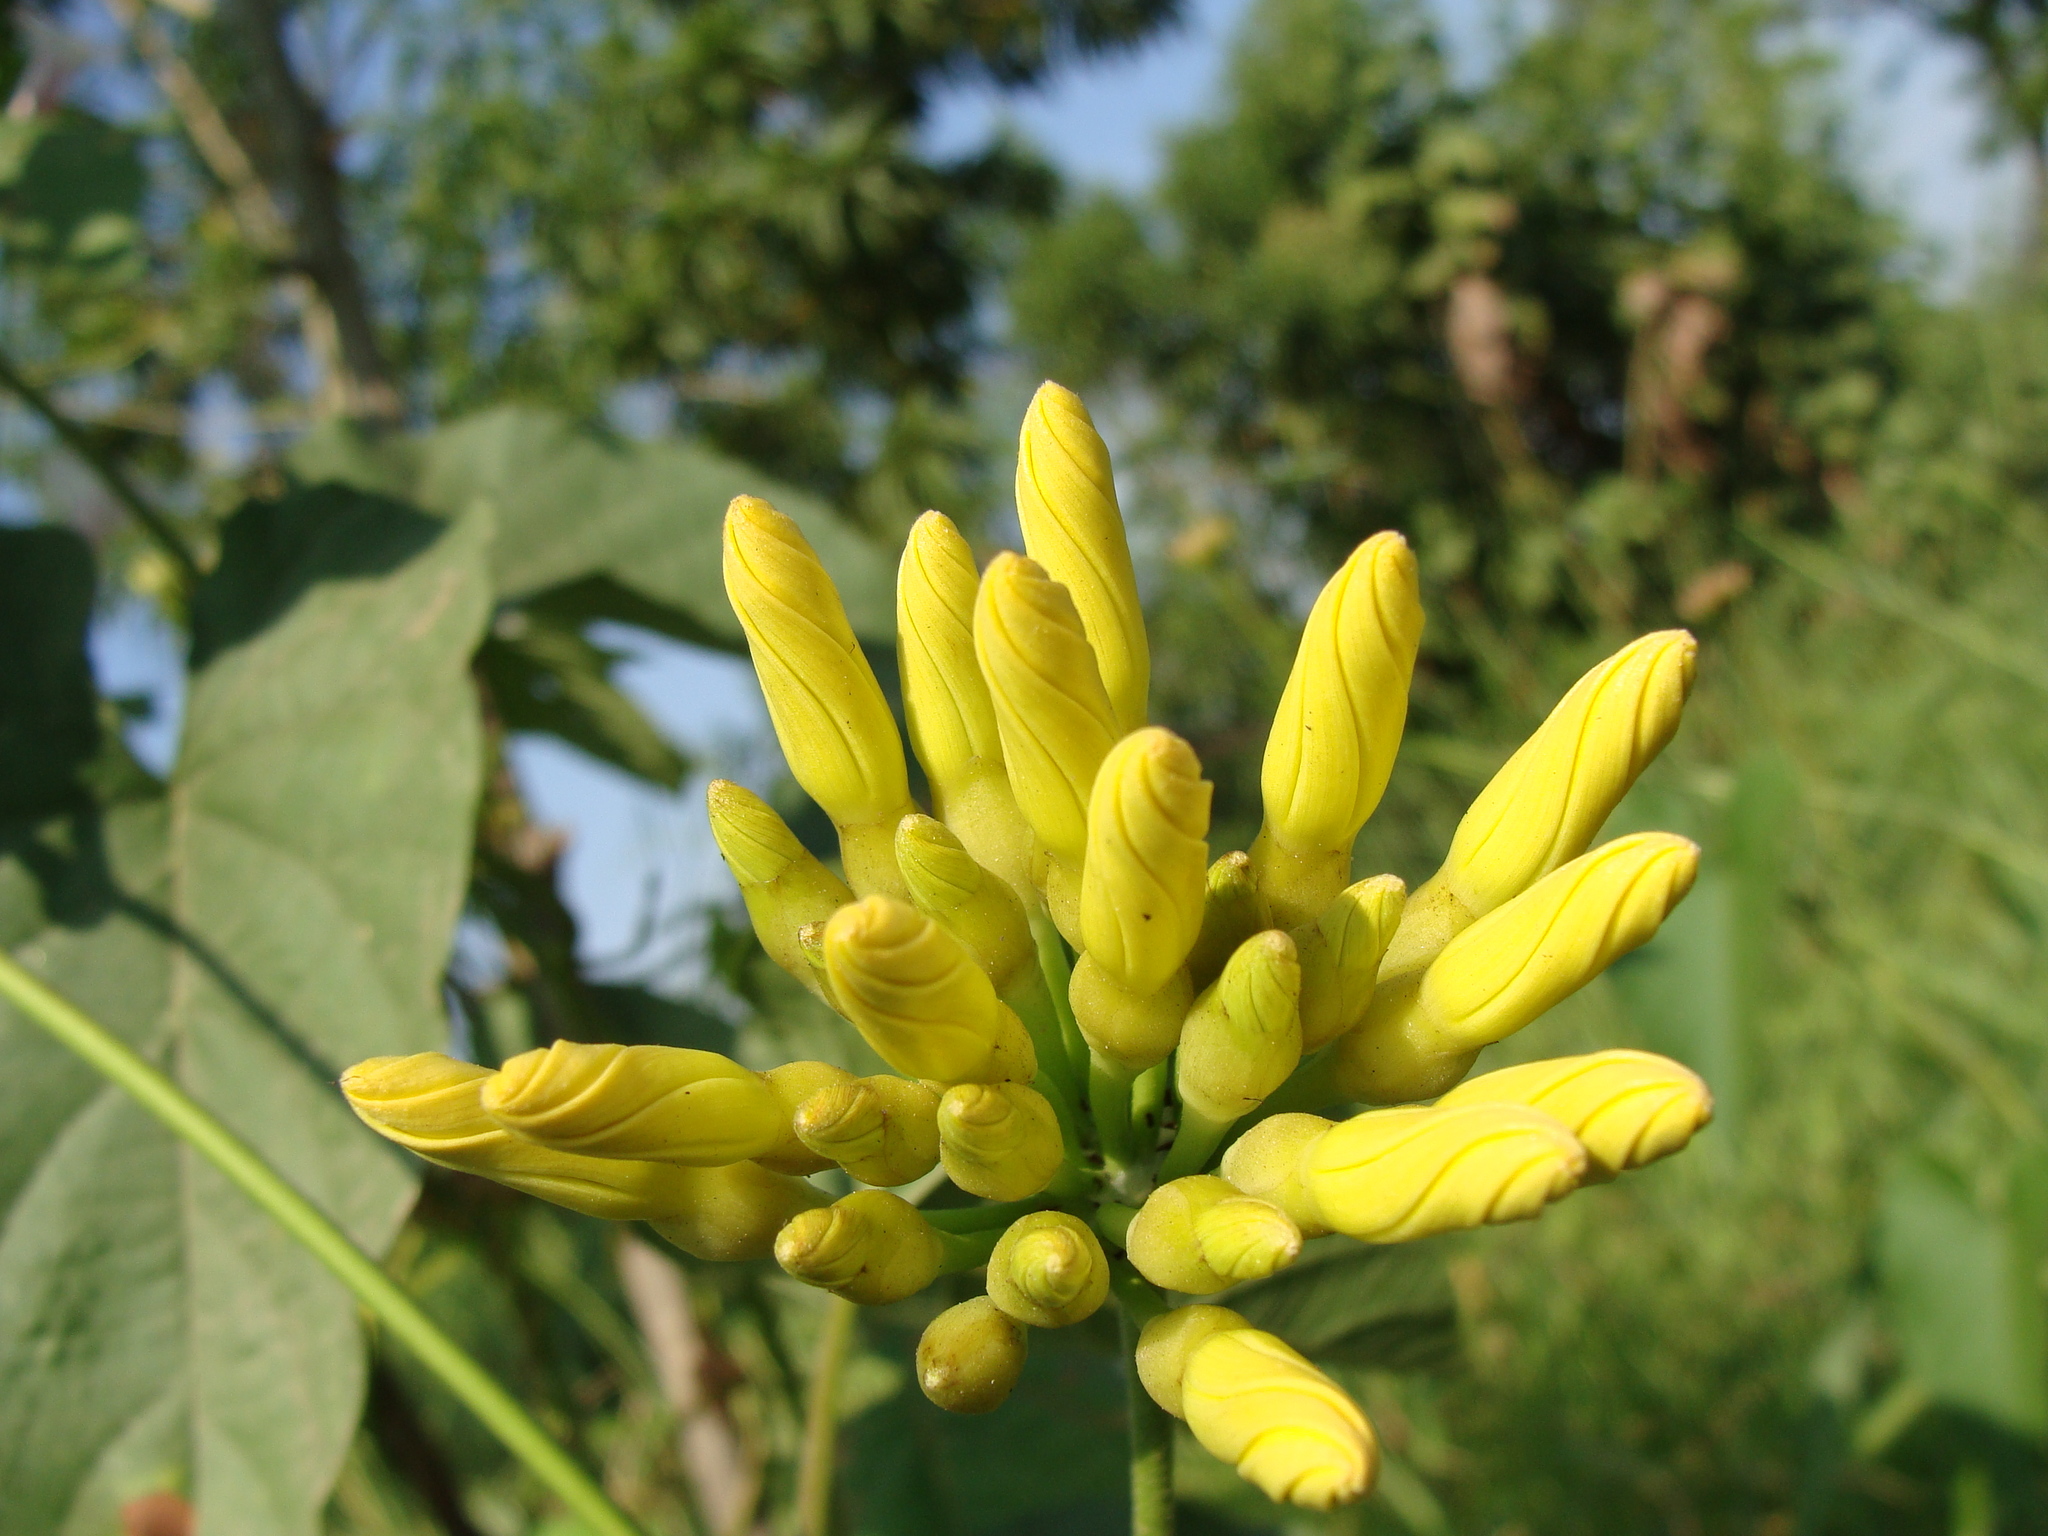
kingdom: Plantae
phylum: Tracheophyta
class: Magnoliopsida
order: Solanales
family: Convolvulaceae
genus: Camonea
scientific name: Camonea umbellata
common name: Hogvine
